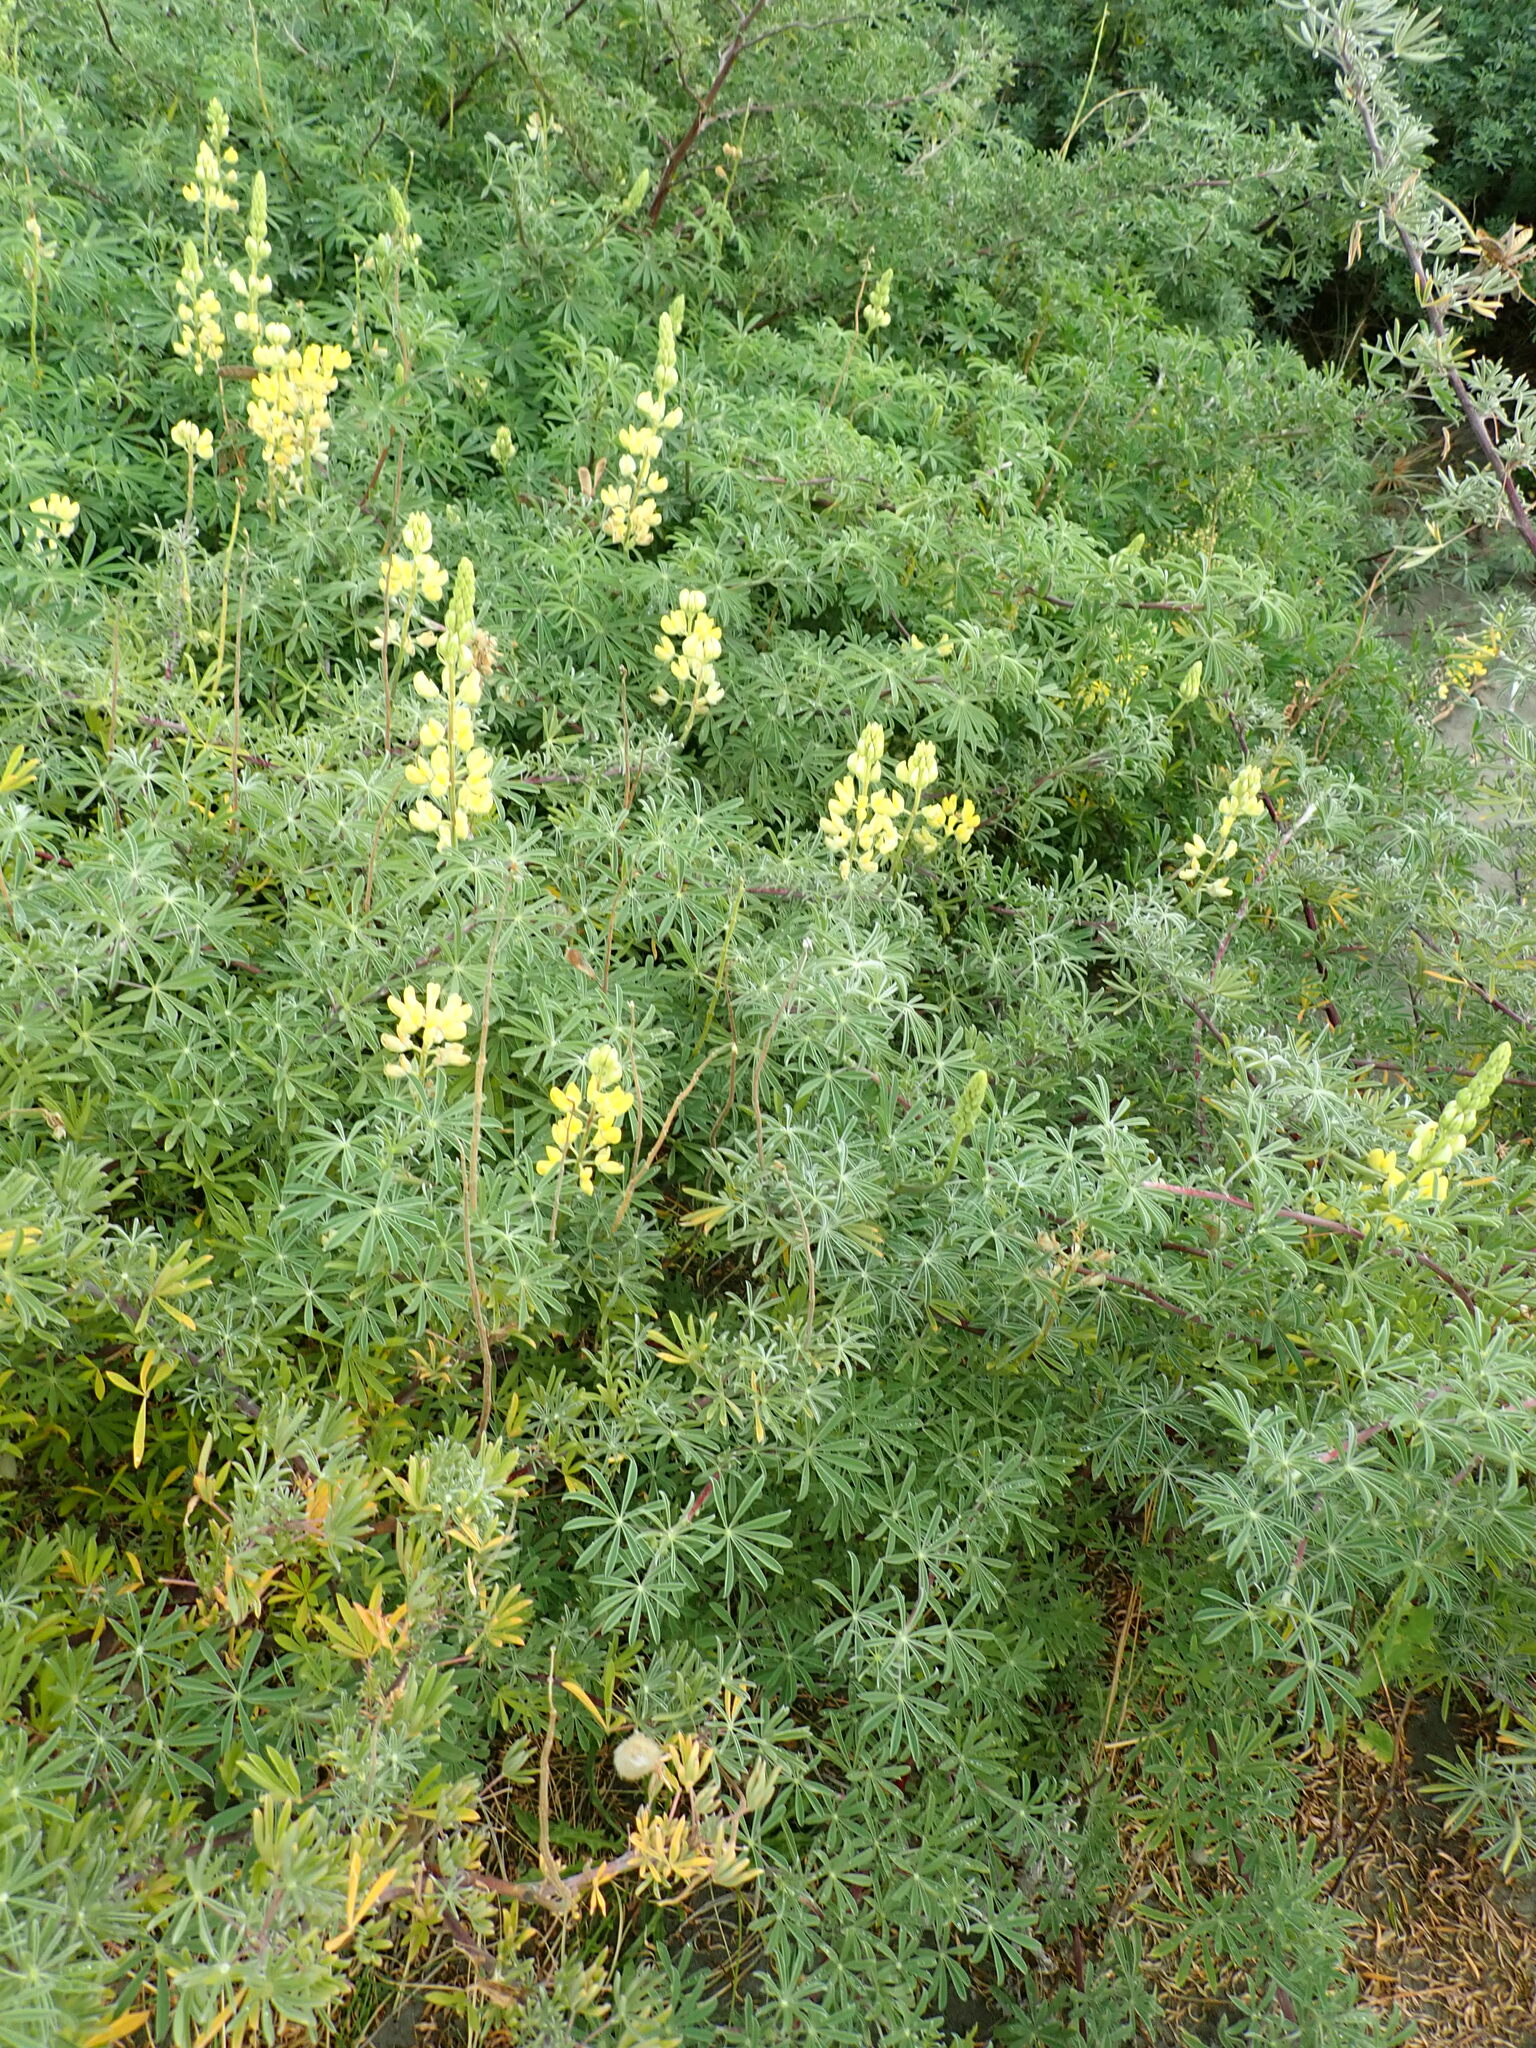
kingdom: Plantae
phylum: Tracheophyta
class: Magnoliopsida
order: Fabales
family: Fabaceae
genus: Lupinus
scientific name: Lupinus arboreus
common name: Yellow bush lupine
